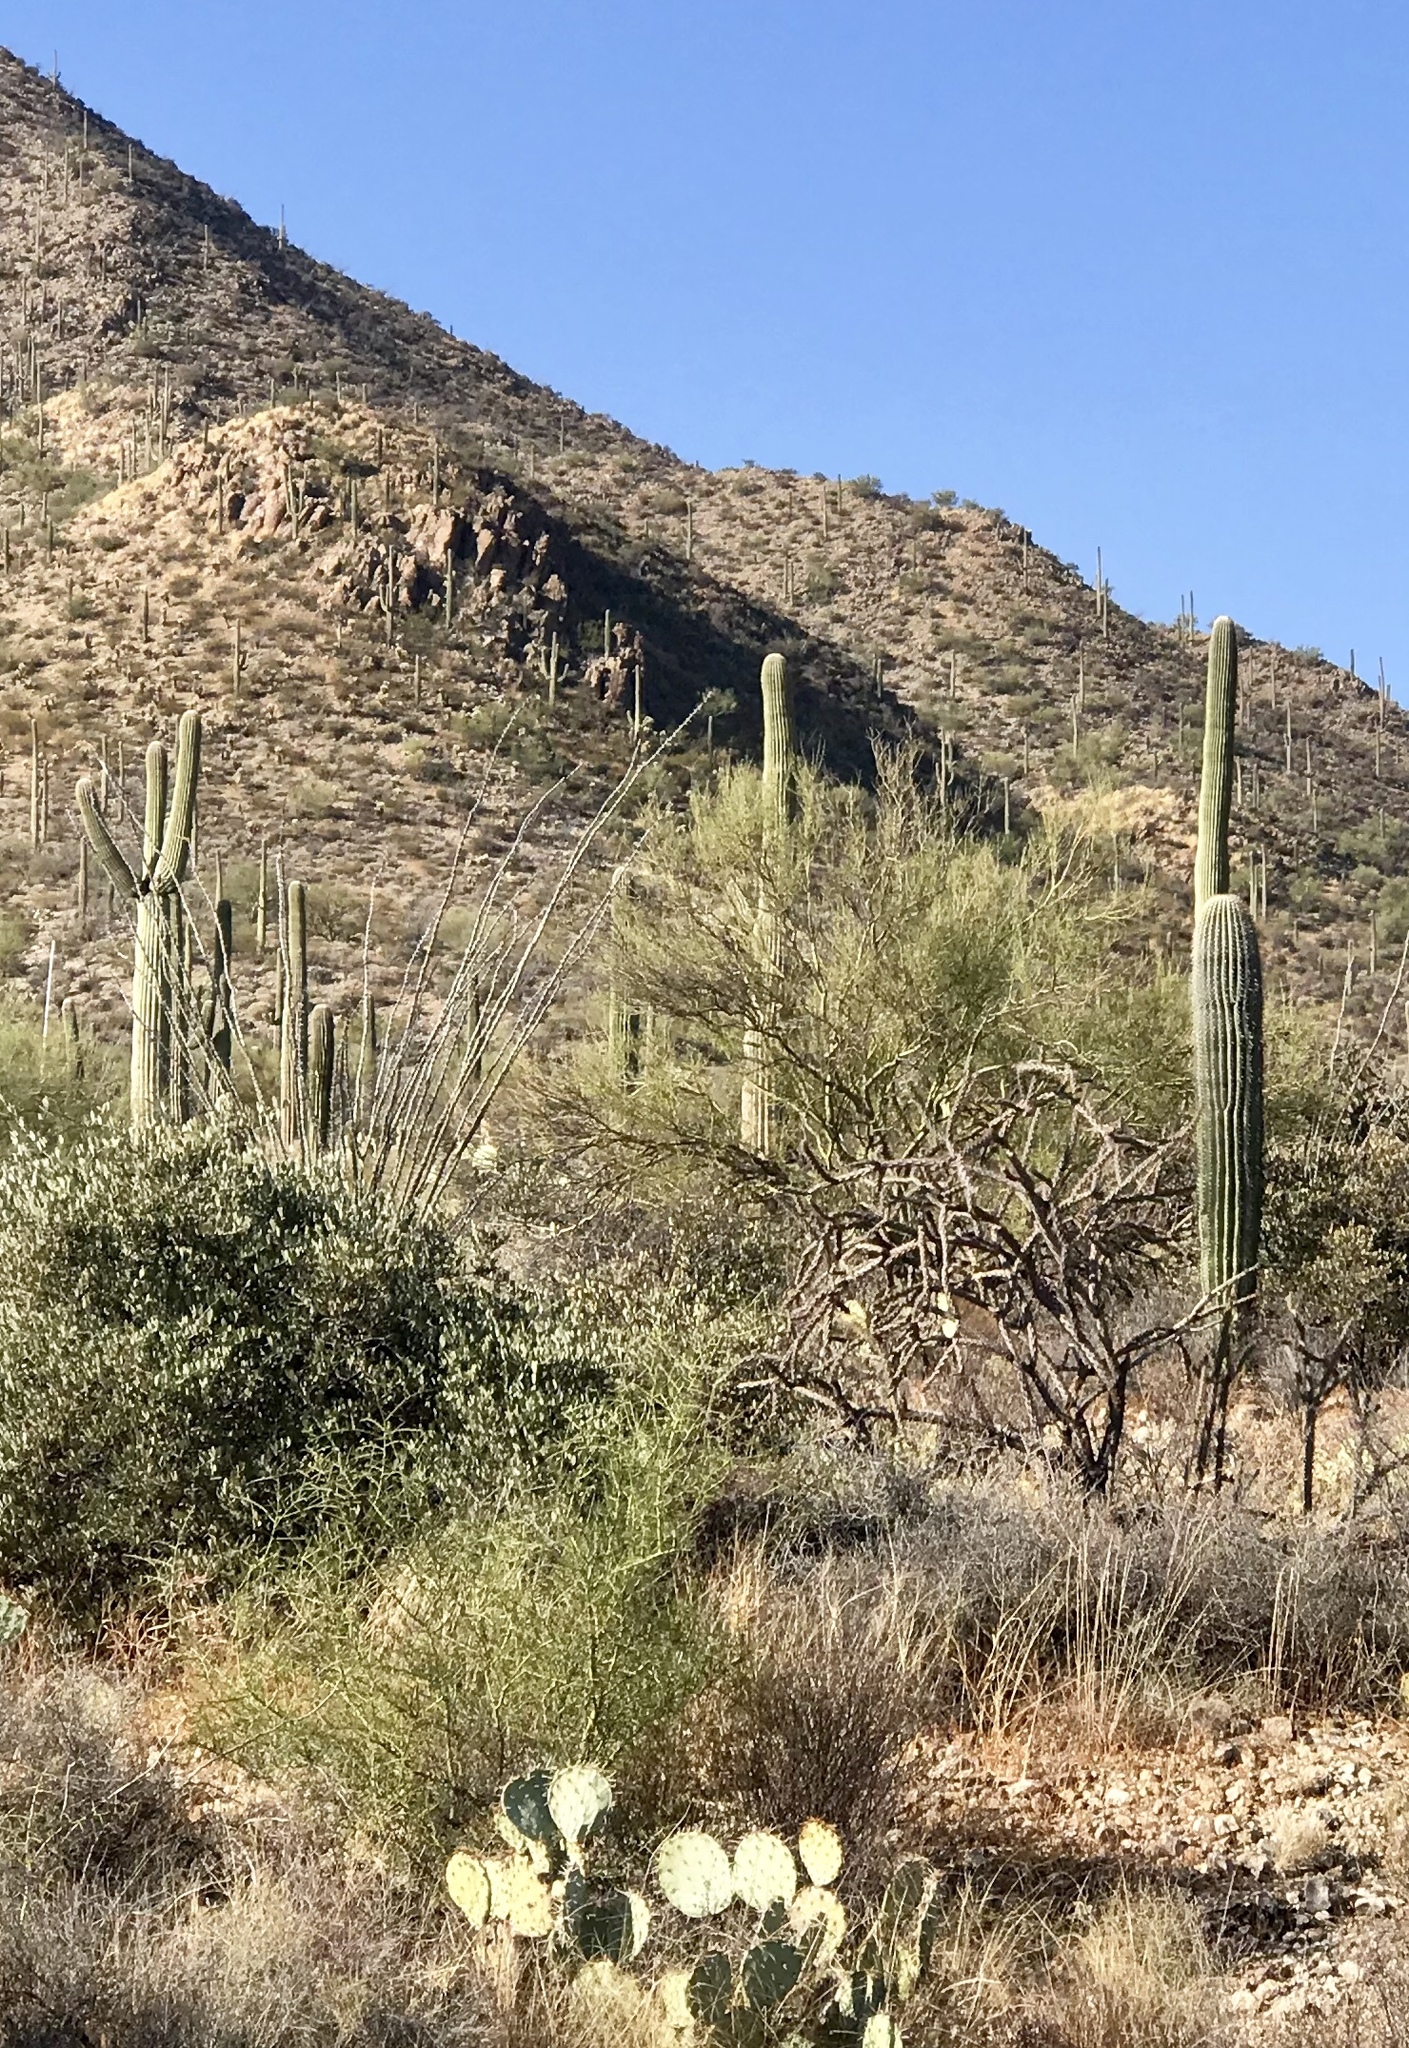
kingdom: Plantae
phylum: Tracheophyta
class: Magnoliopsida
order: Caryophyllales
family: Cactaceae
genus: Carnegiea
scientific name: Carnegiea gigantea
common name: Saguaro
